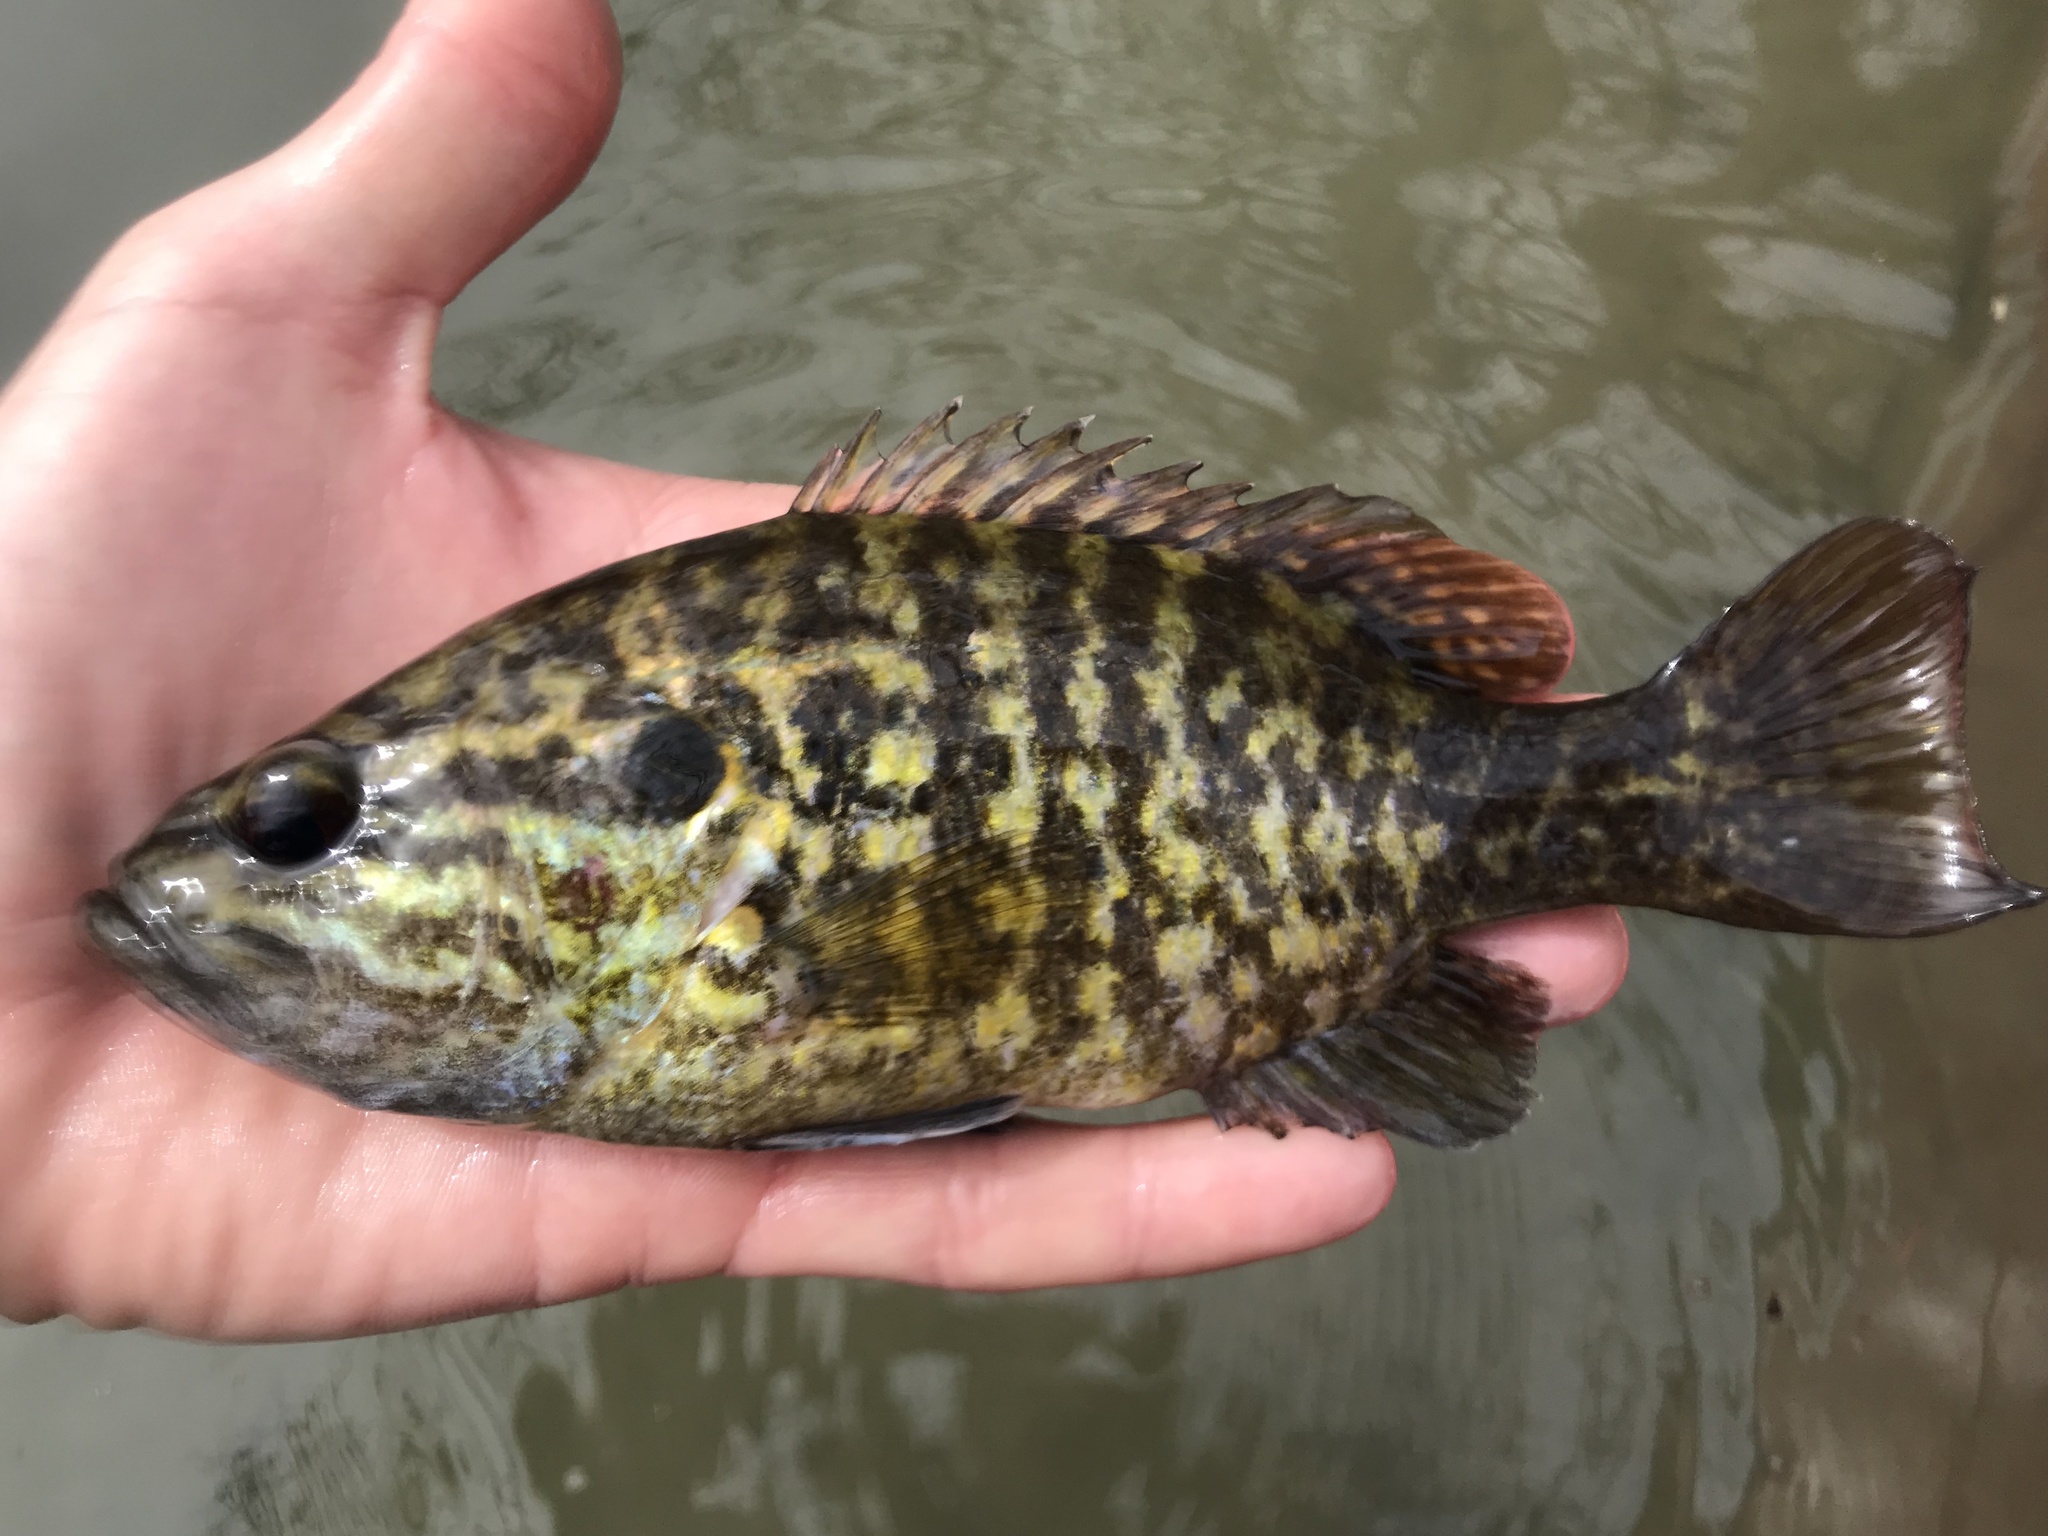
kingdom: Animalia
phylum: Chordata
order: Perciformes
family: Centrarchidae
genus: Lepomis
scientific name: Lepomis gulosus
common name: Warmouth
